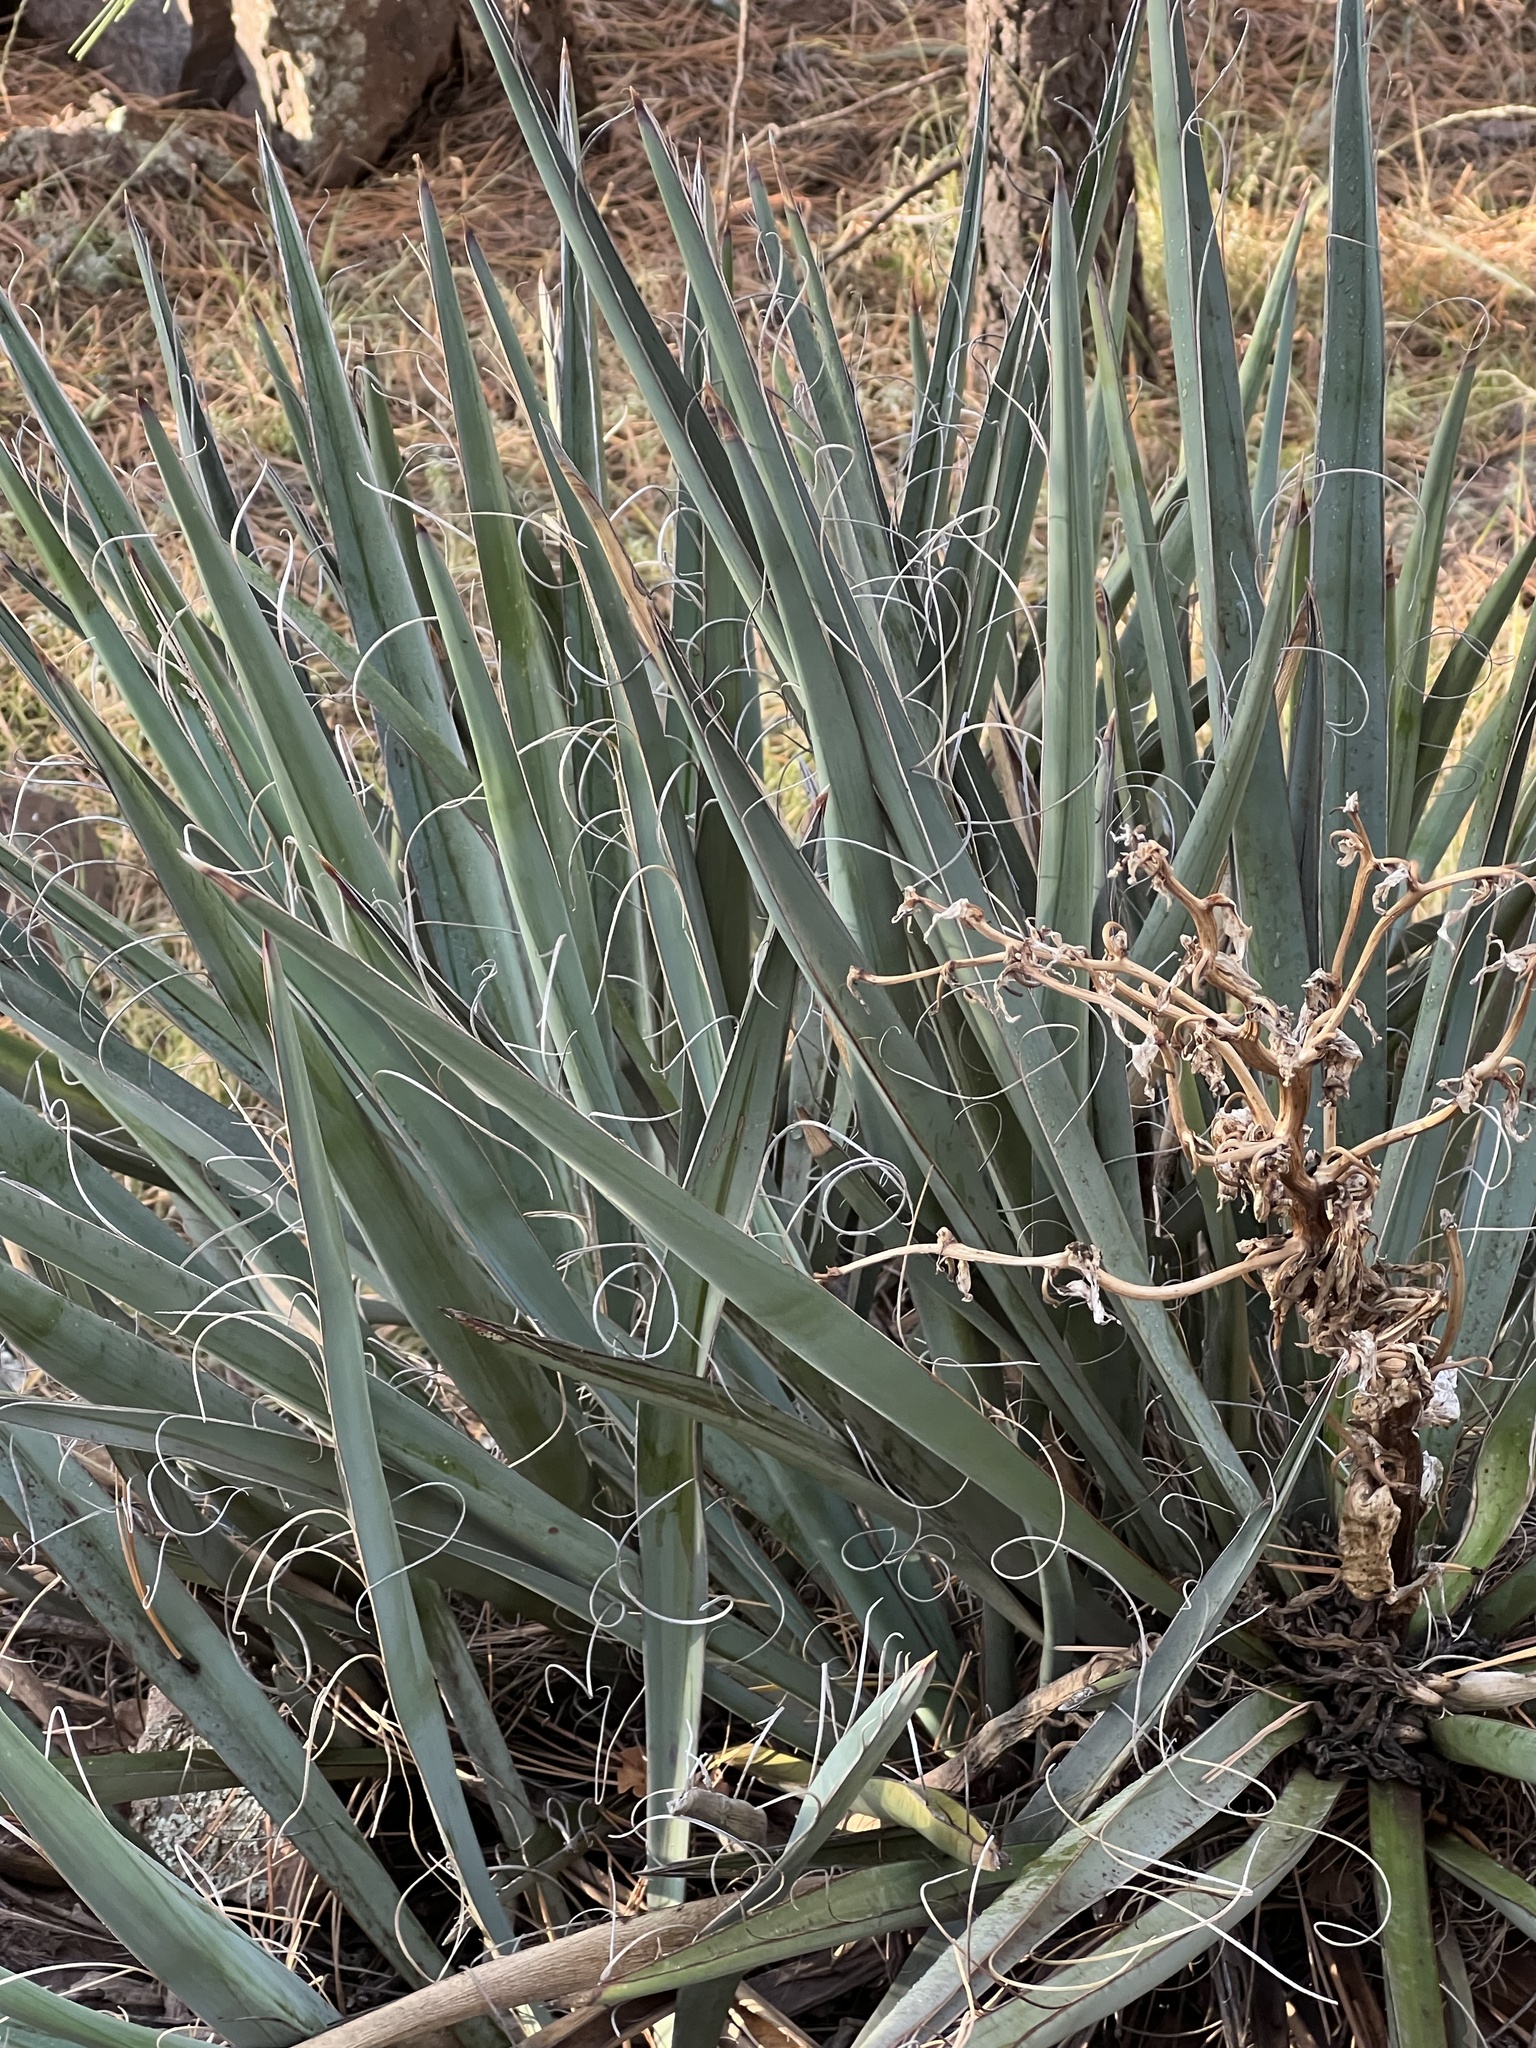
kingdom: Plantae
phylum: Tracheophyta
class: Liliopsida
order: Asparagales
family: Asparagaceae
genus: Yucca
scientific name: Yucca baccata
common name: Banana yucca
